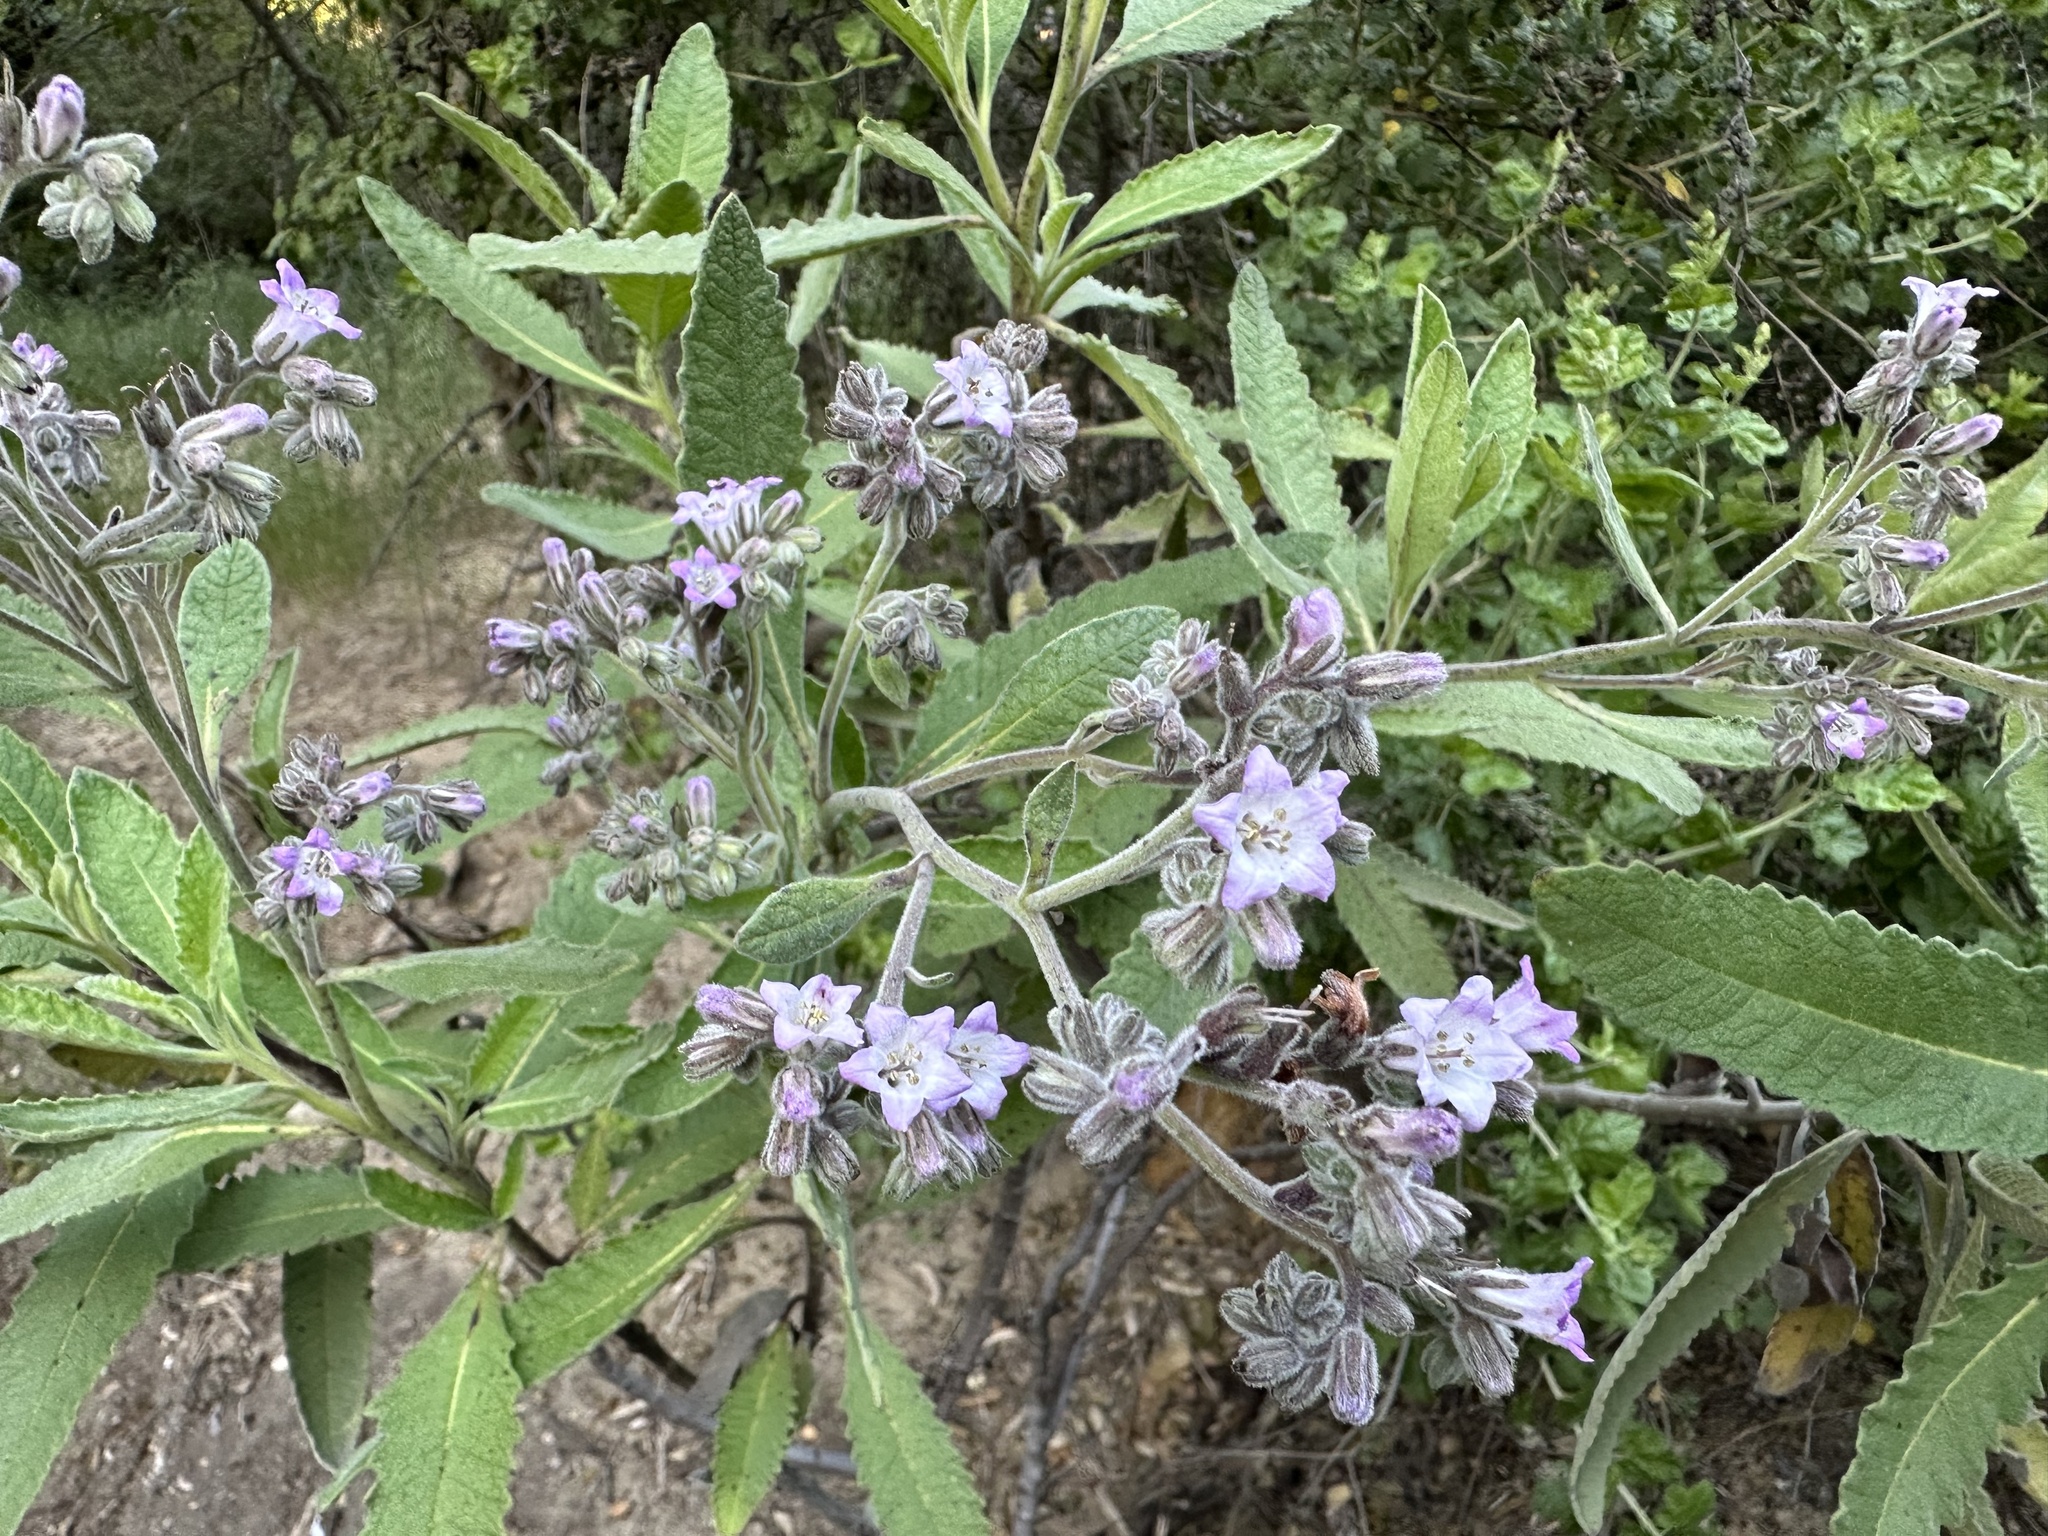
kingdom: Plantae
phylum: Tracheophyta
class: Magnoliopsida
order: Boraginales
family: Namaceae
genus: Eriodictyon
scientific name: Eriodictyon crassifolium
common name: Thick-leaf yerba-santa
